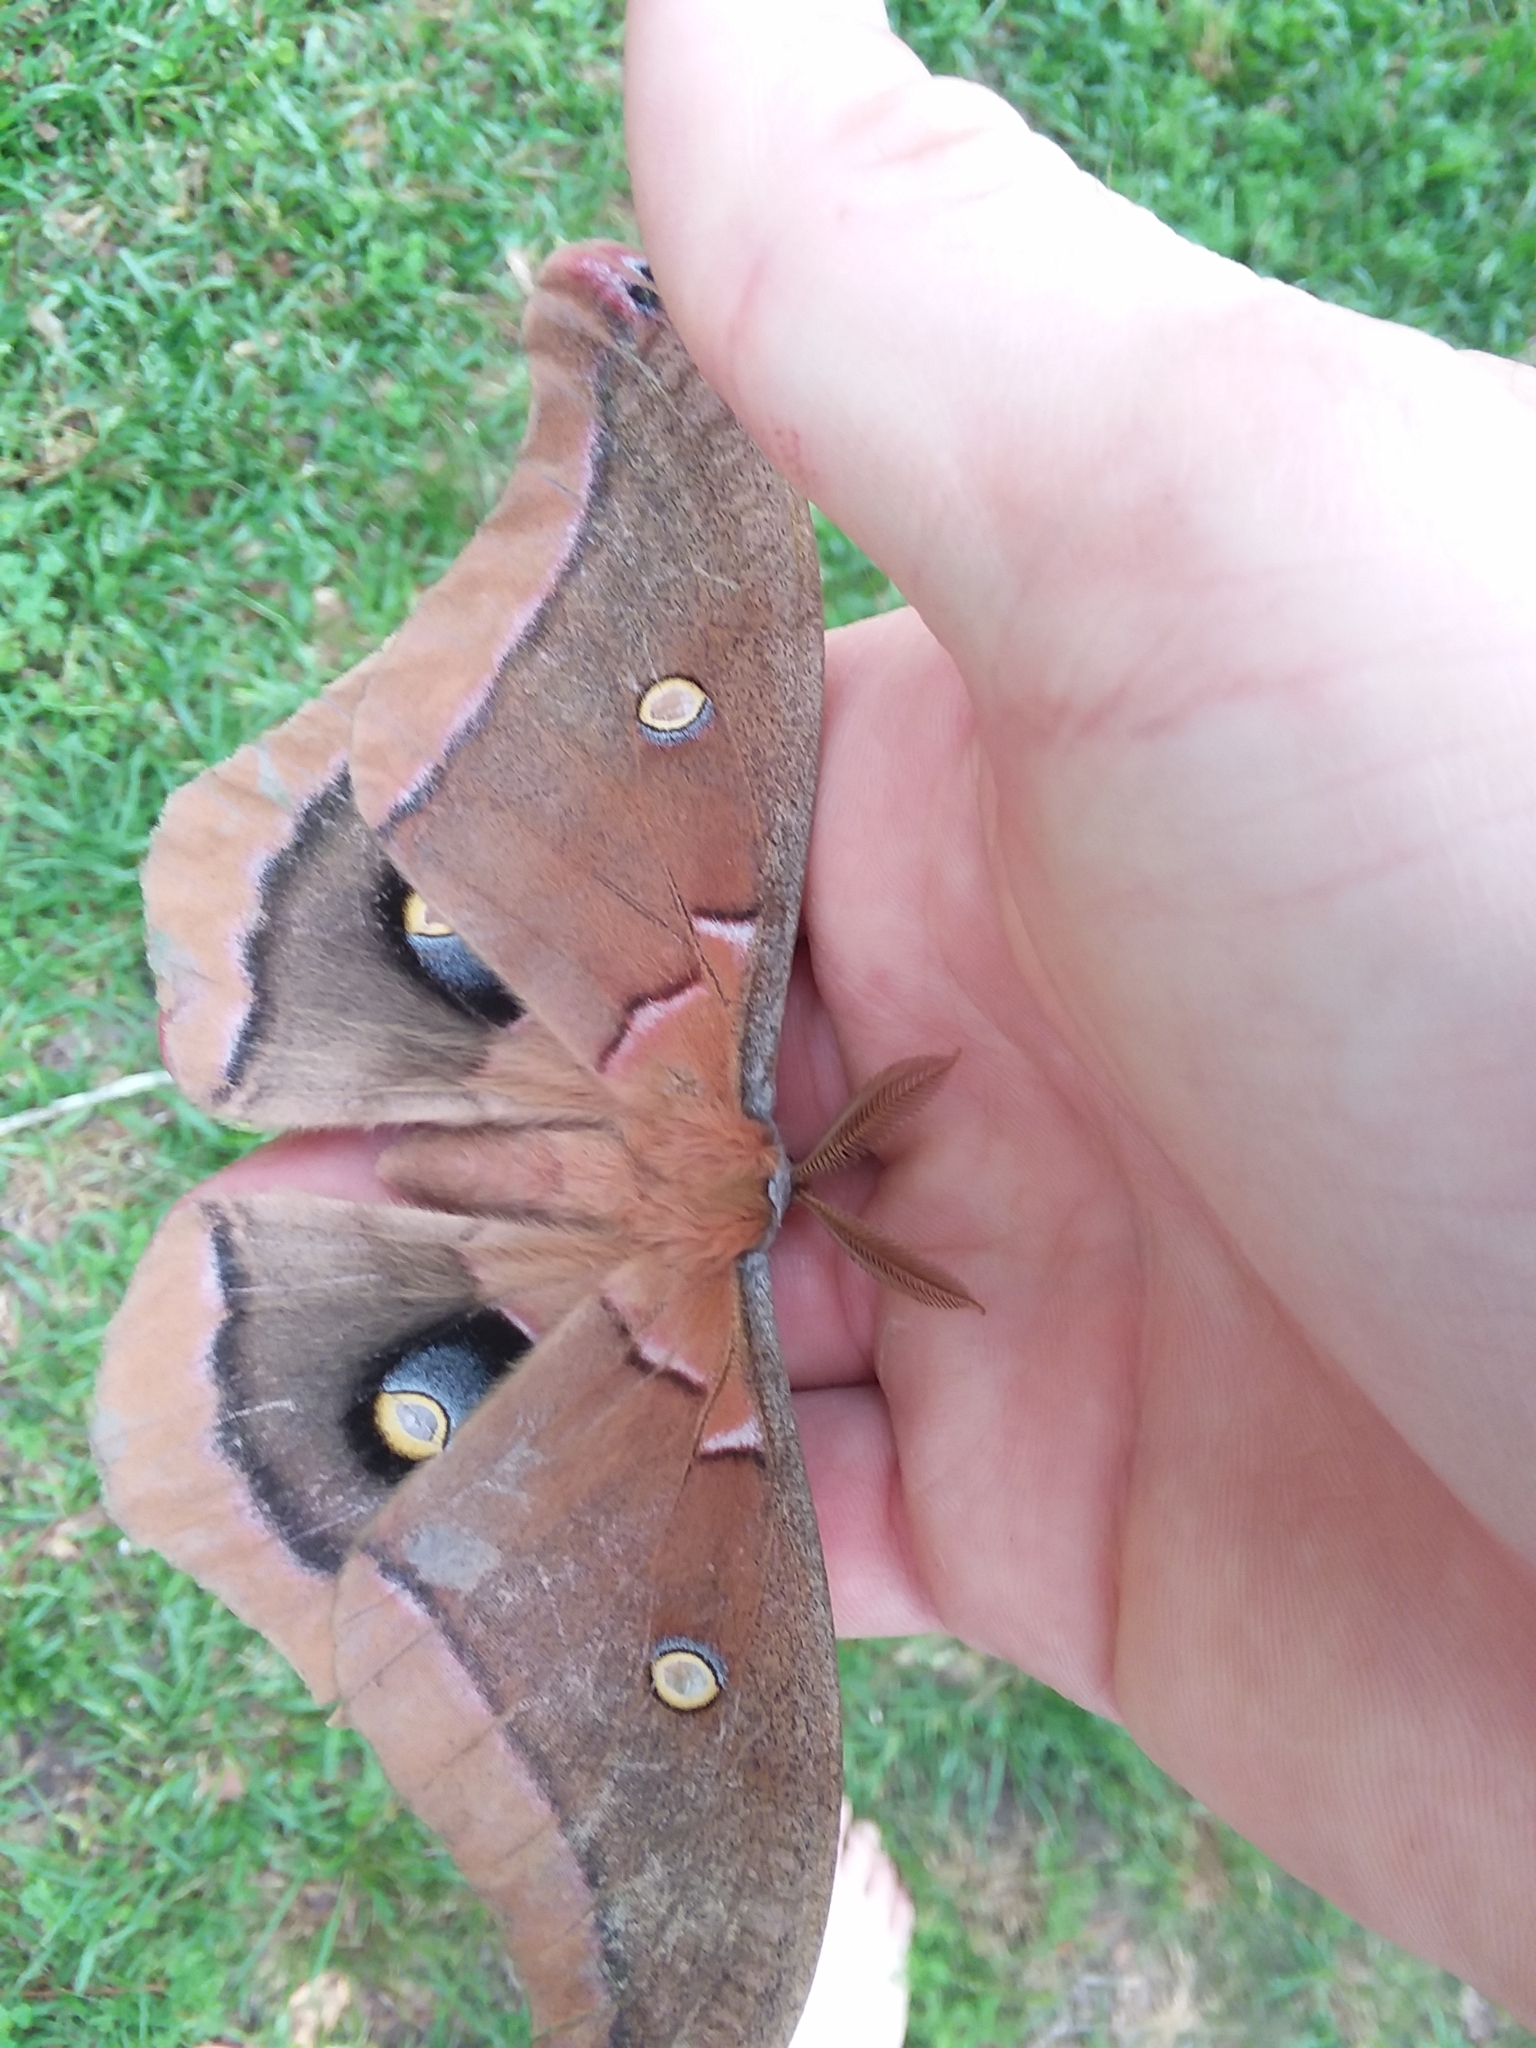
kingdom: Animalia
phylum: Arthropoda
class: Insecta
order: Lepidoptera
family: Saturniidae
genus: Antheraea
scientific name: Antheraea polyphemus
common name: Polyphemus moth
